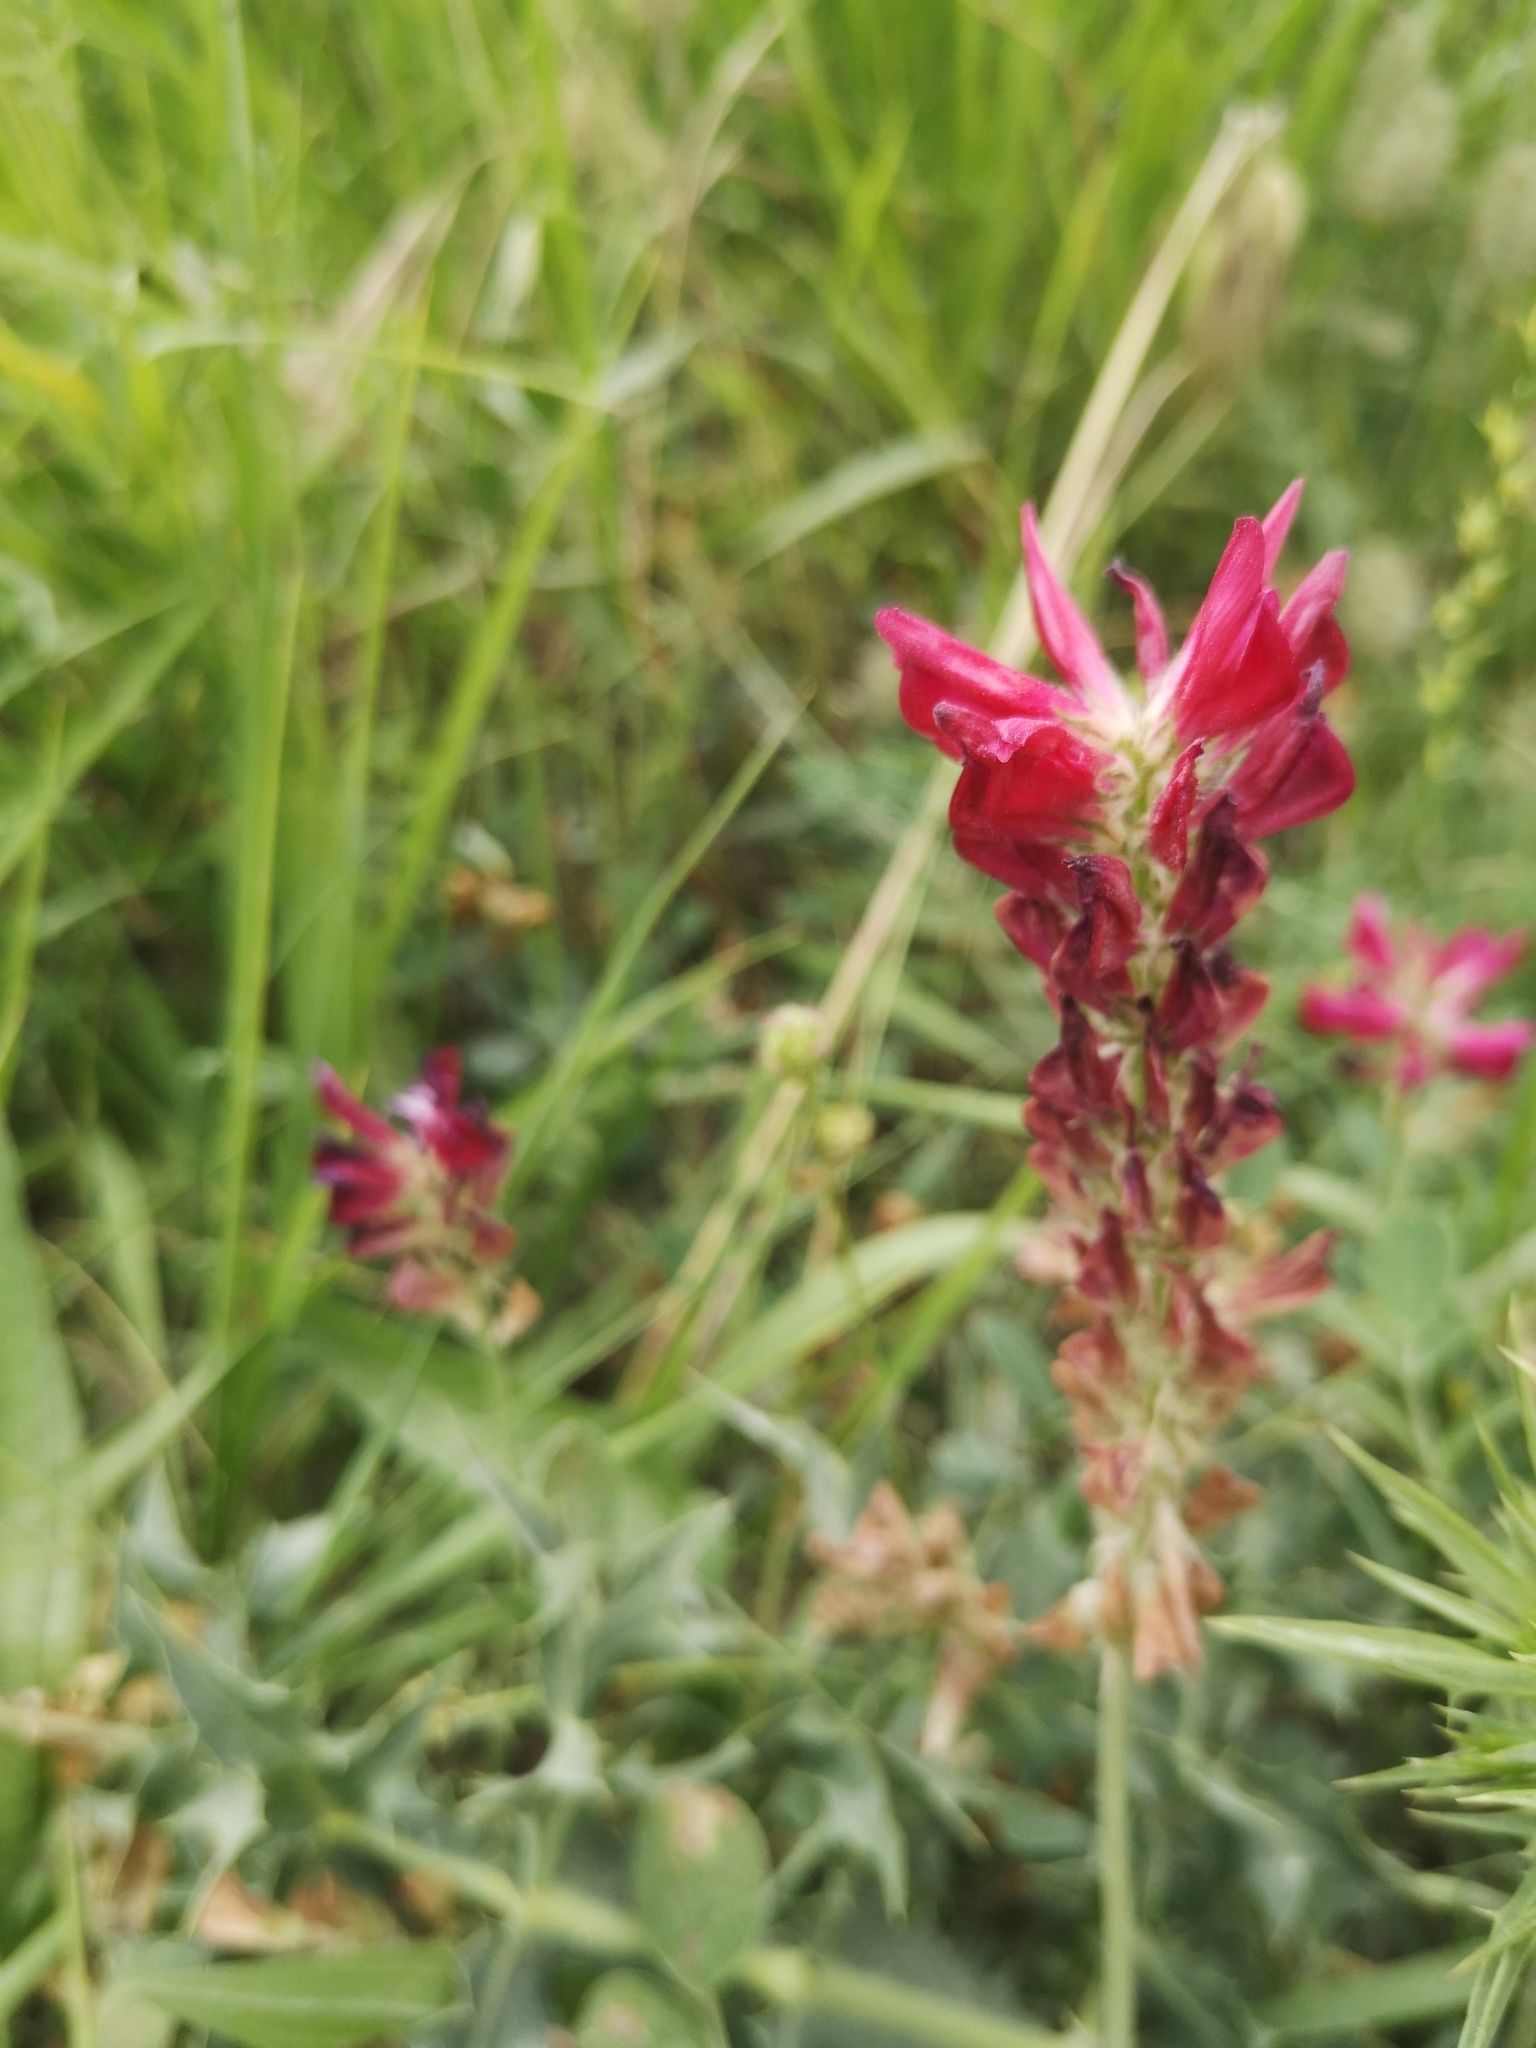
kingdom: Plantae
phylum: Tracheophyta
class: Magnoliopsida
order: Fabales
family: Fabaceae
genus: Sulla
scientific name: Sulla coronaria
